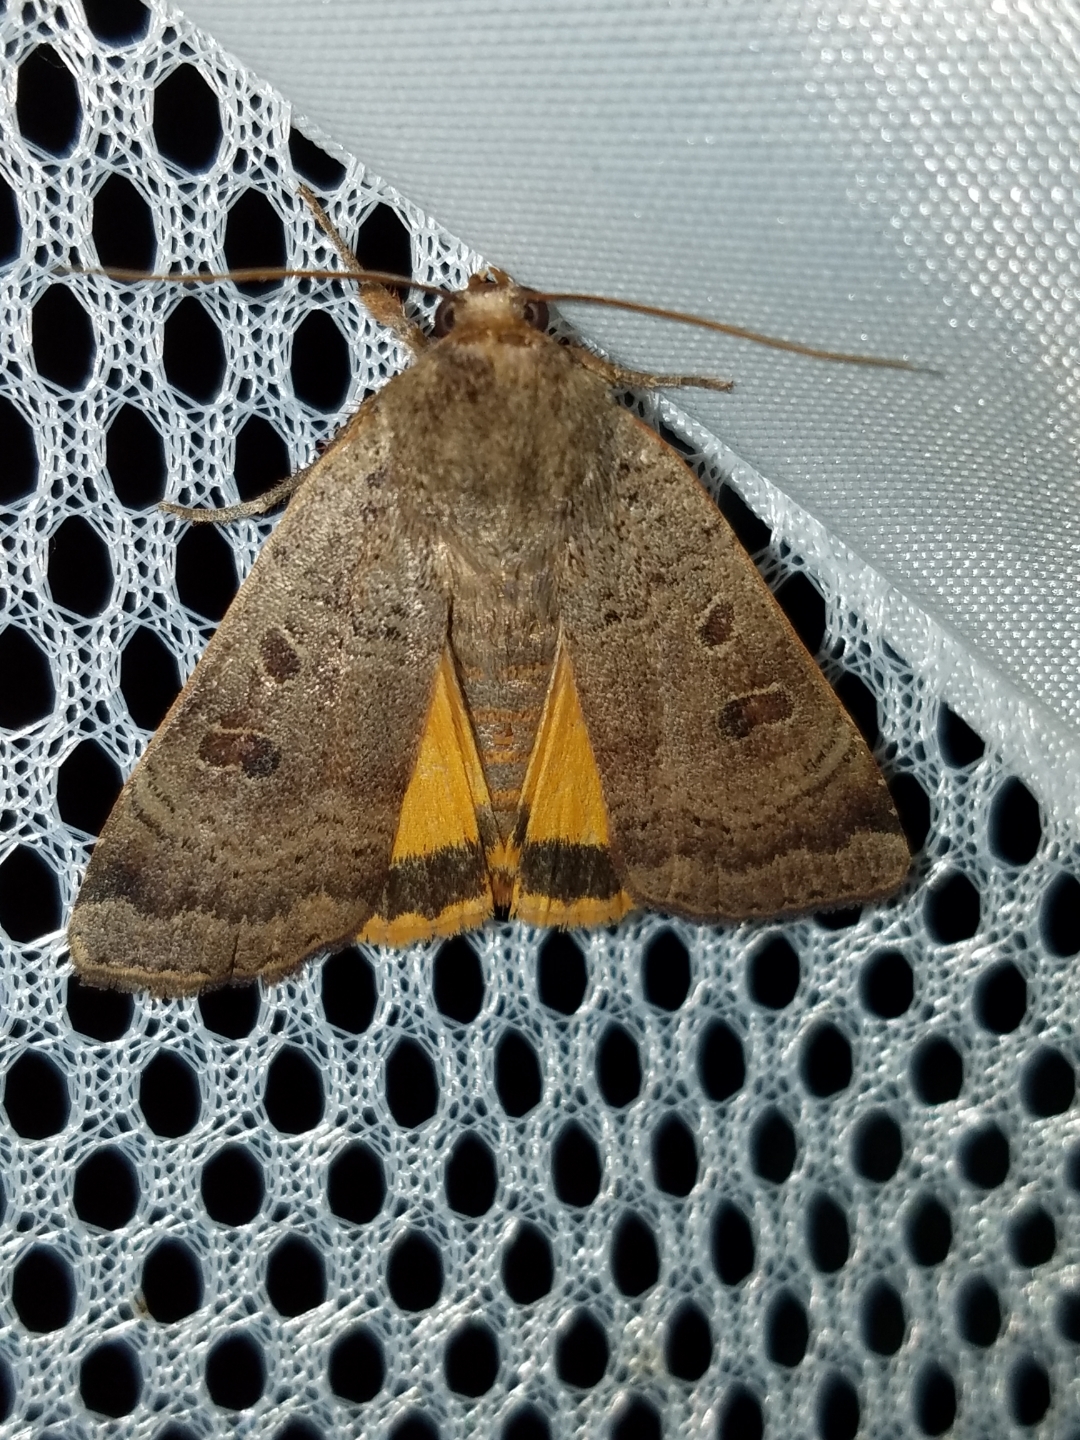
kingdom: Animalia
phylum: Arthropoda
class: Insecta
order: Lepidoptera
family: Noctuidae
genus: Noctua
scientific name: Noctua comes
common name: Lesser yellow underwing
